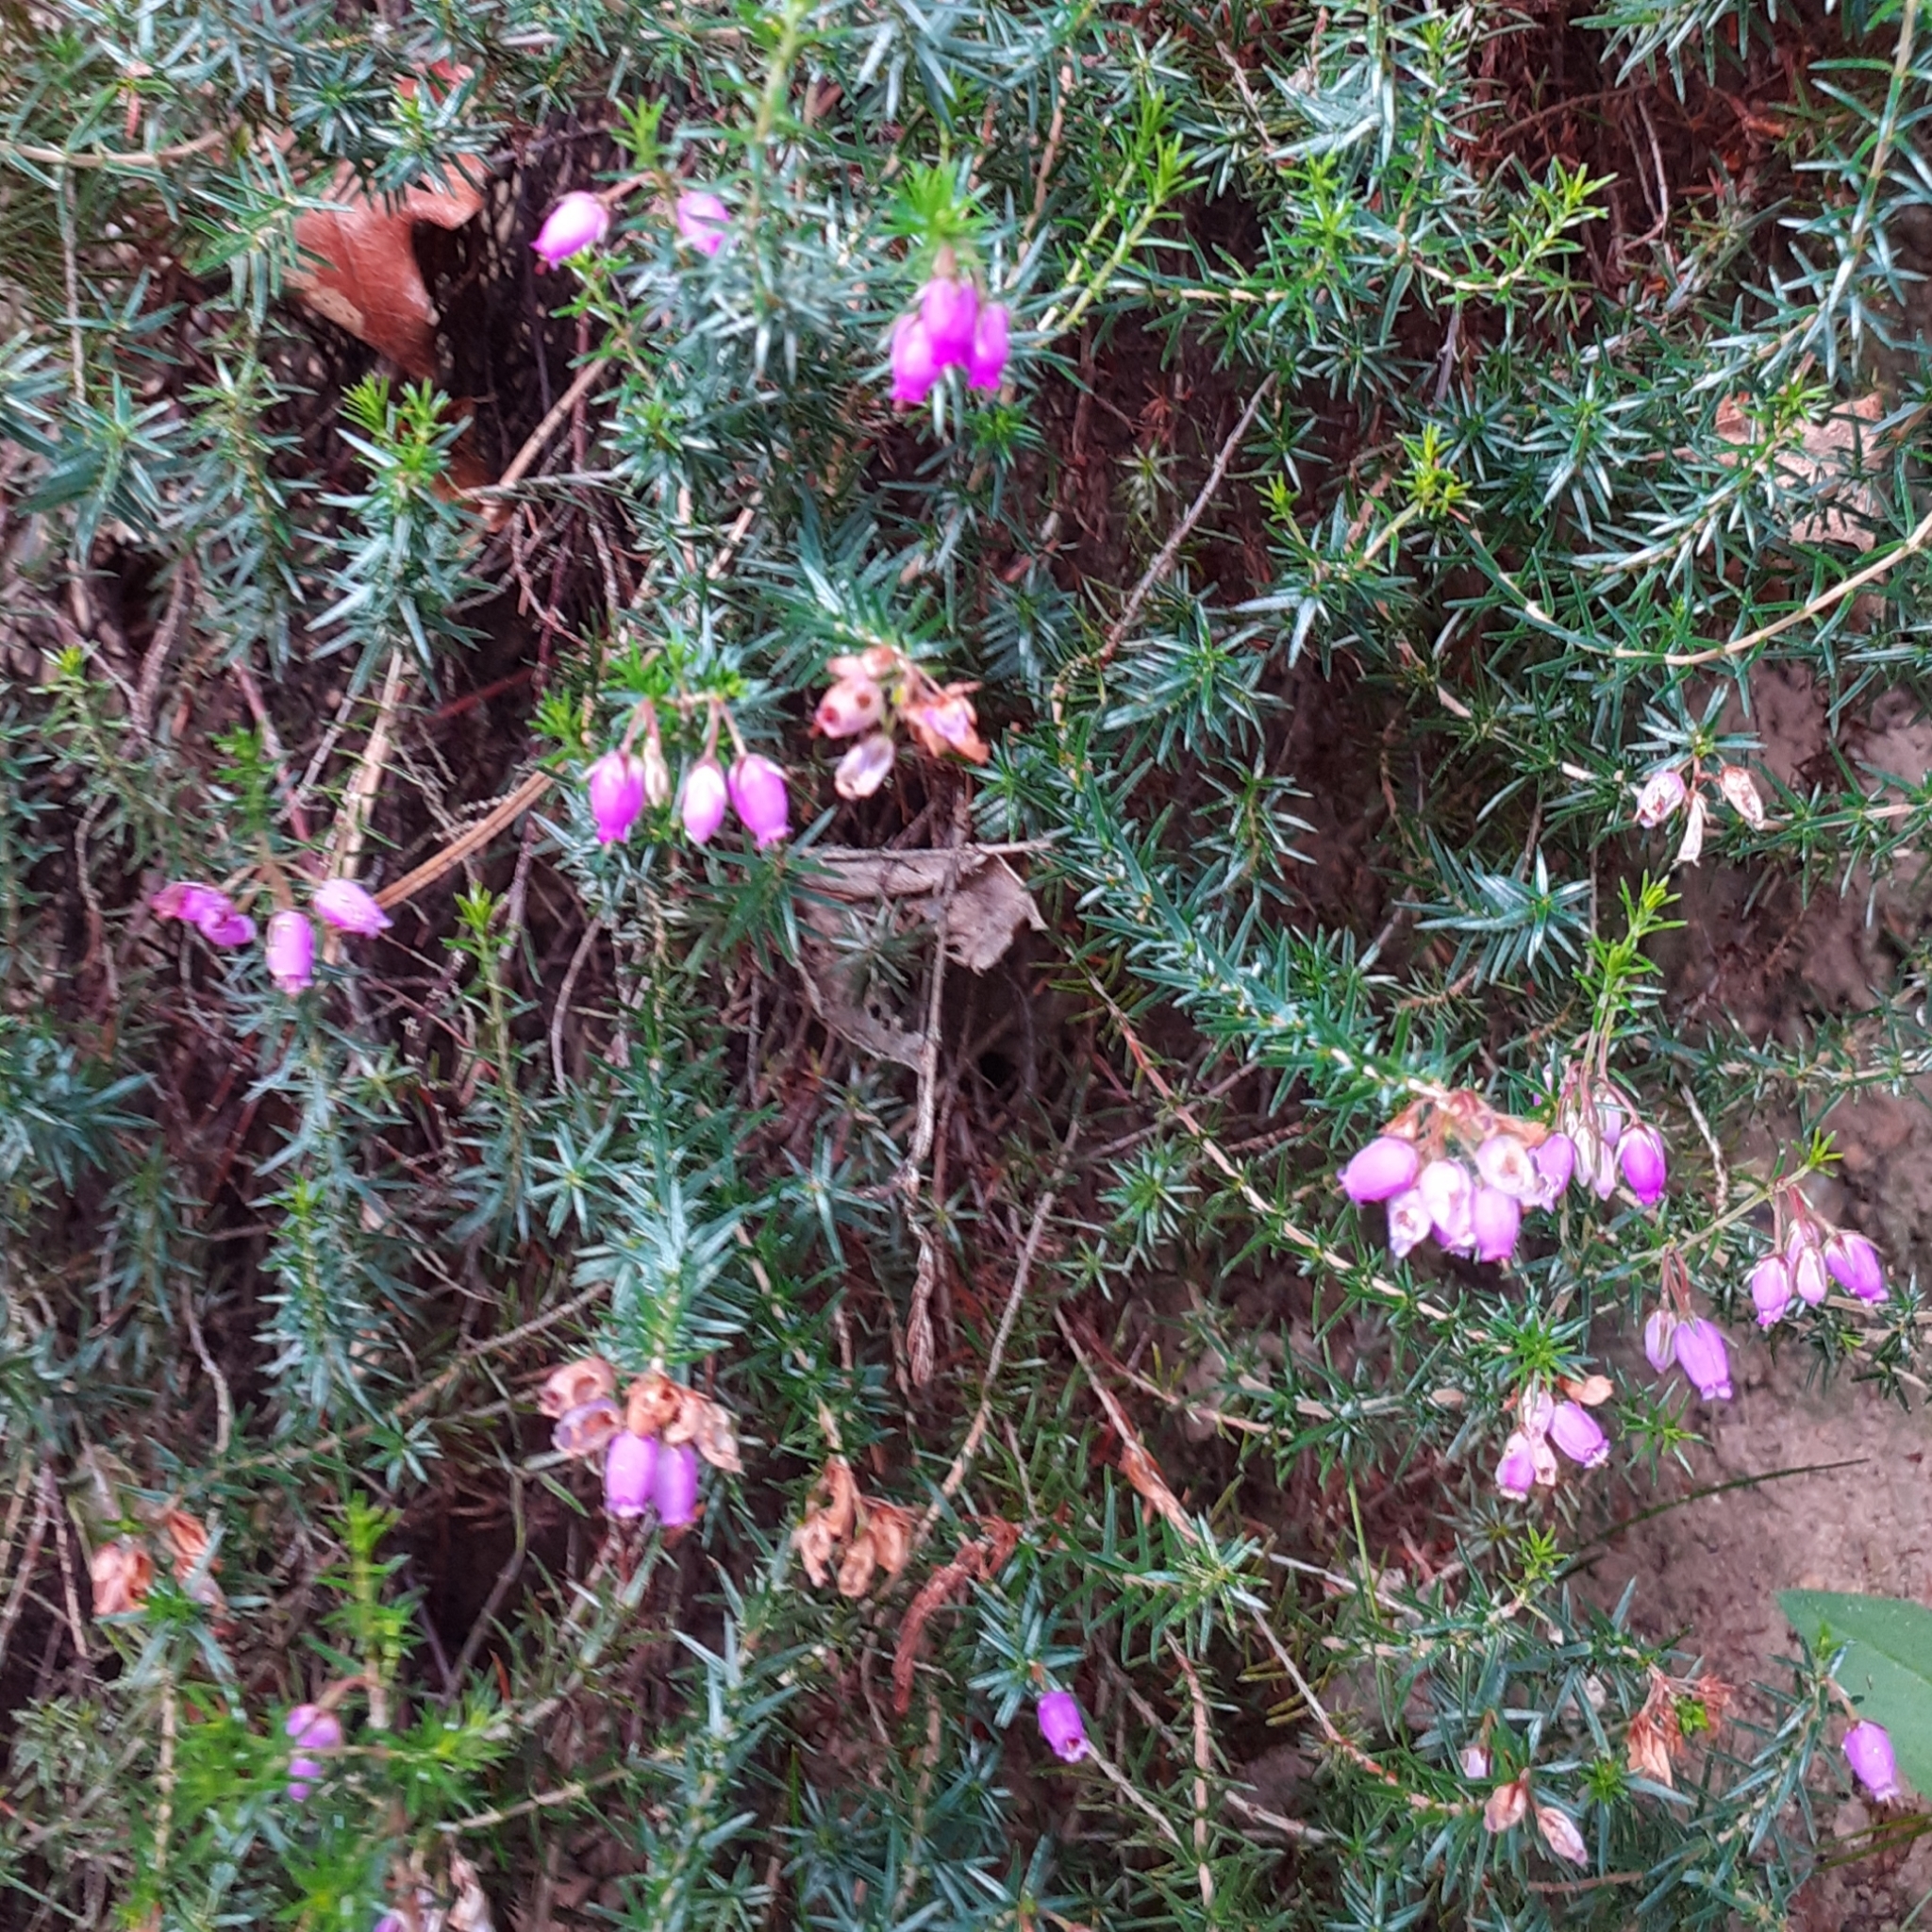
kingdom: Plantae
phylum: Tracheophyta
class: Magnoliopsida
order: Ericales
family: Ericaceae
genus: Erica
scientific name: Erica cinerea
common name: Bell heather
